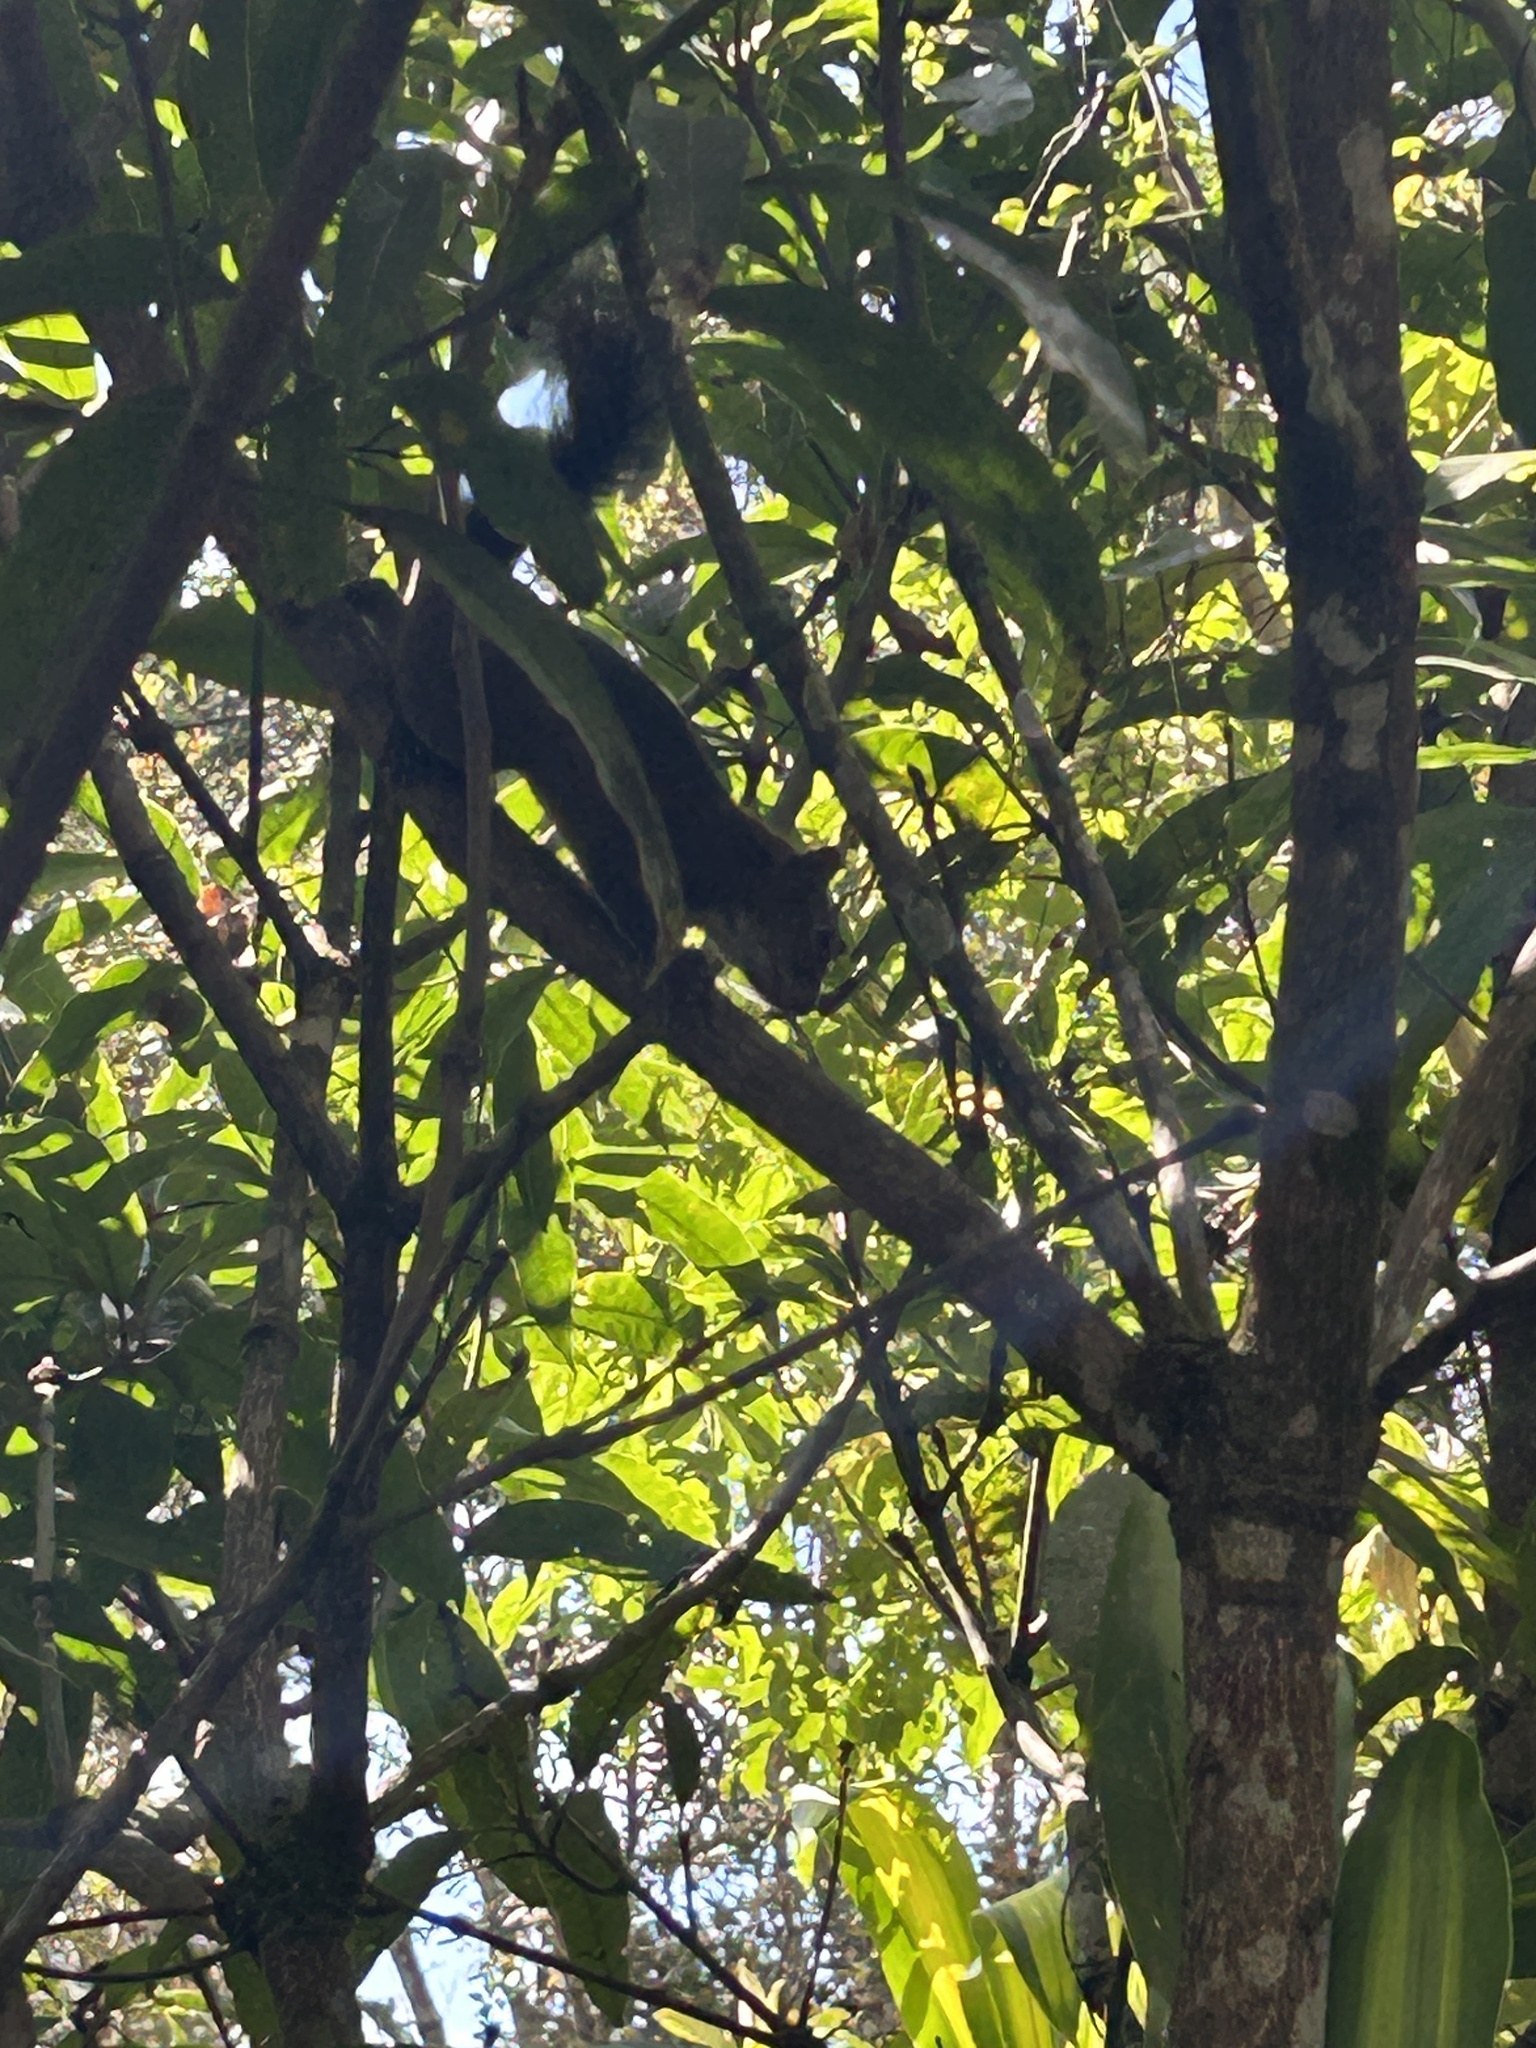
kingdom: Animalia
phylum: Chordata
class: Mammalia
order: Rodentia
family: Sciuridae
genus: Sciurus
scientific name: Sciurus deppei
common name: Deppe's squirrel
